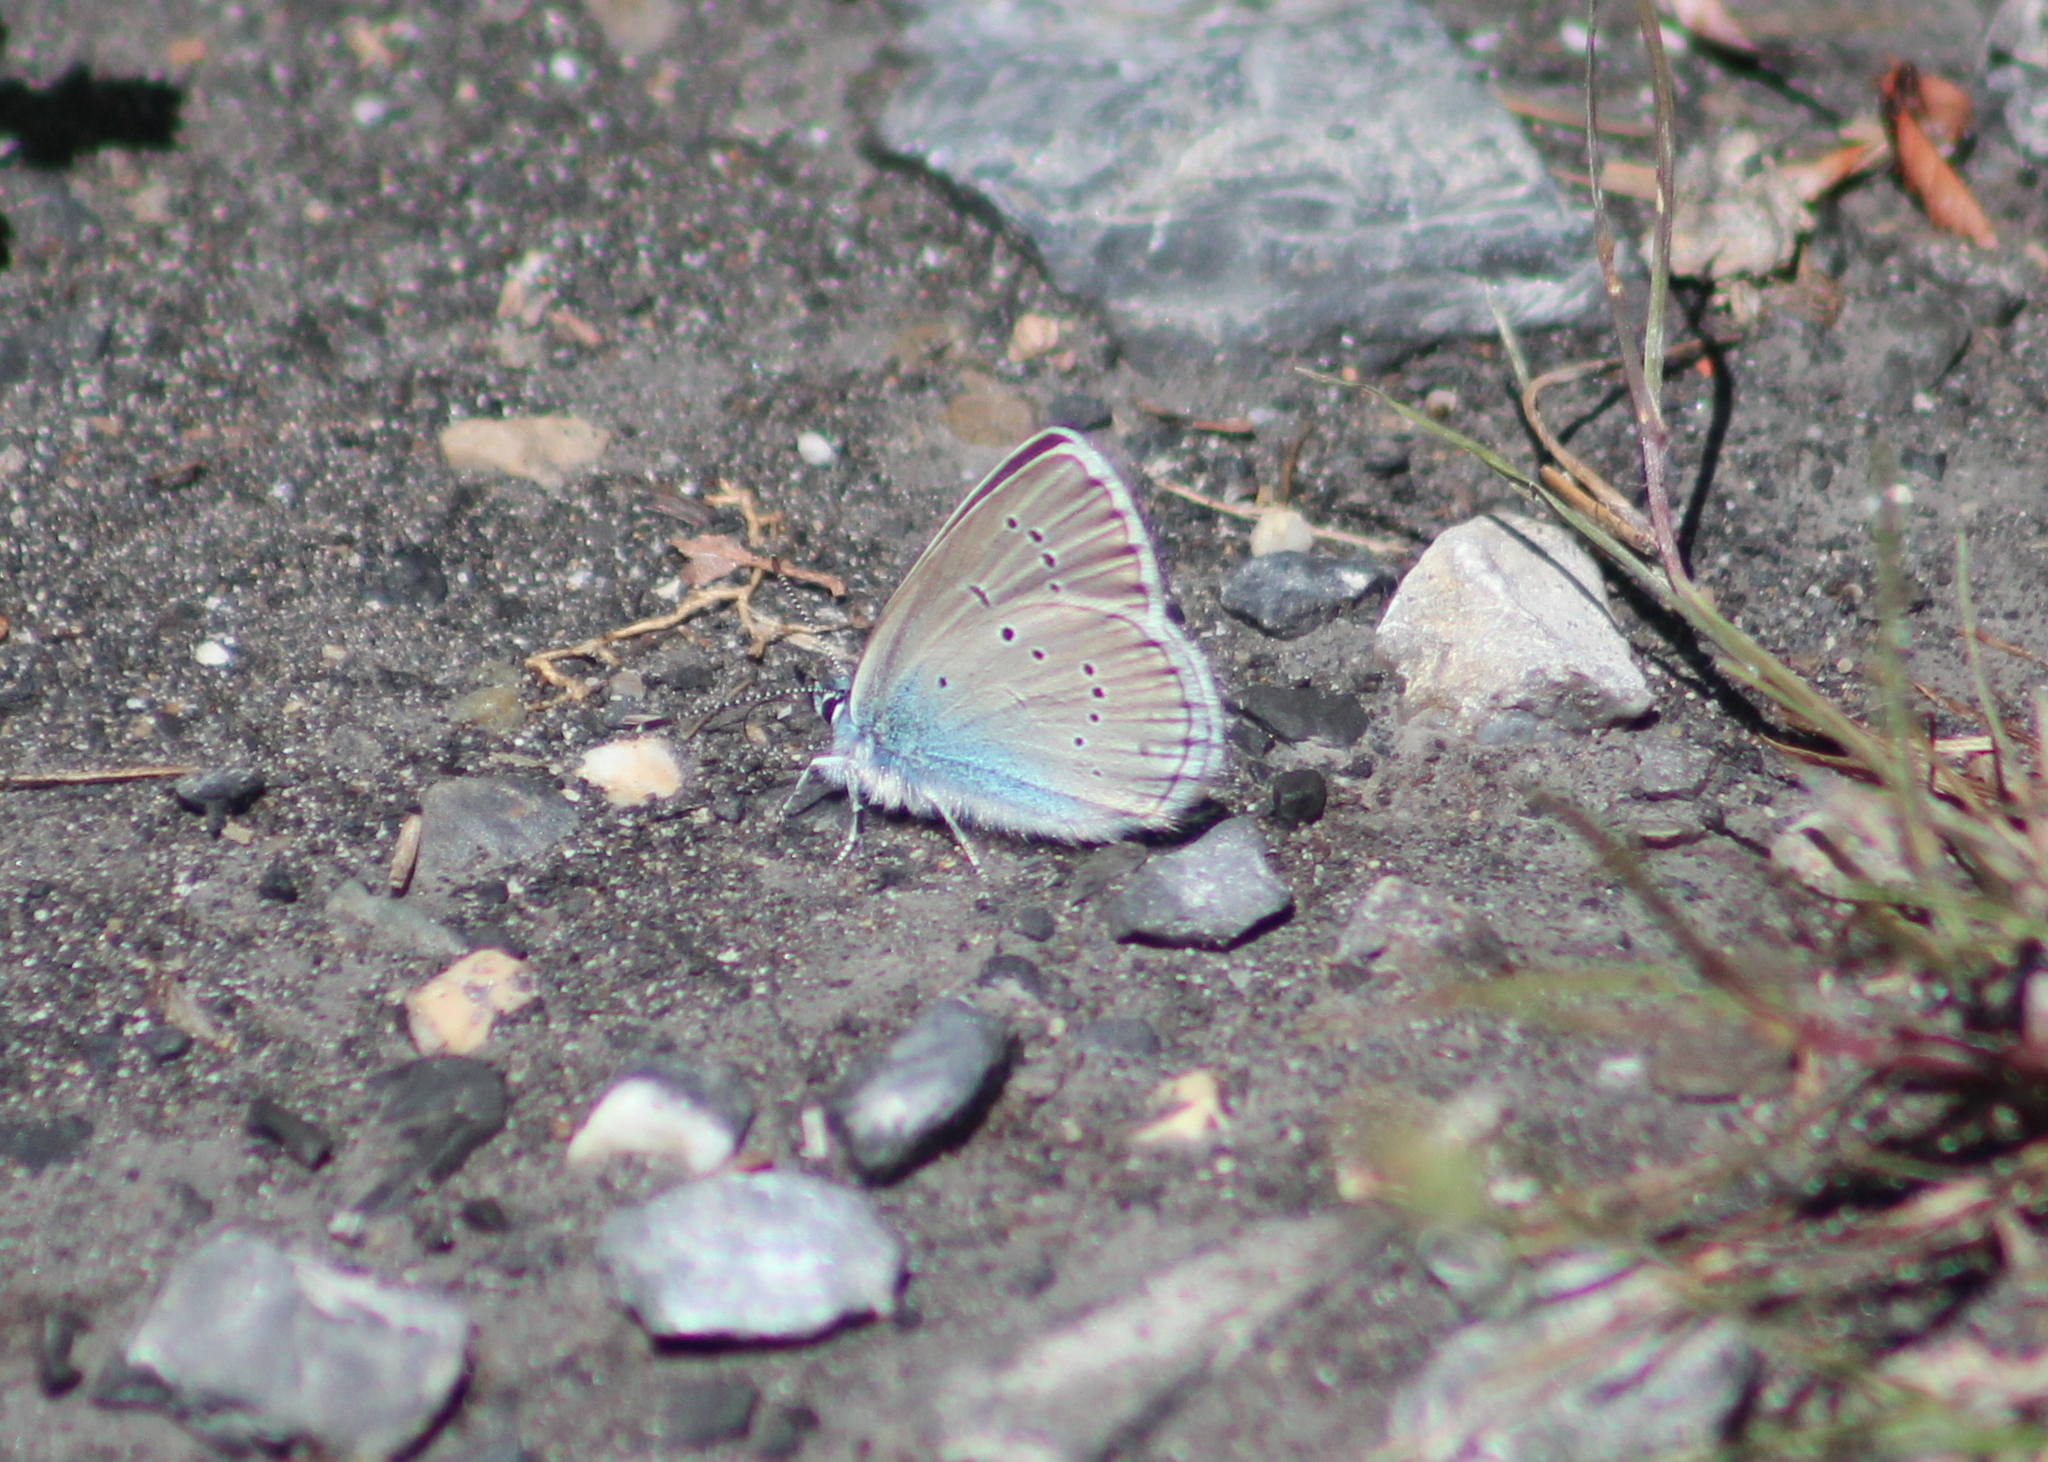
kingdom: Animalia
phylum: Arthropoda
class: Insecta
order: Lepidoptera
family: Lycaenidae
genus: Cyaniris
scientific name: Cyaniris semiargus
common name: Mazarine blue
